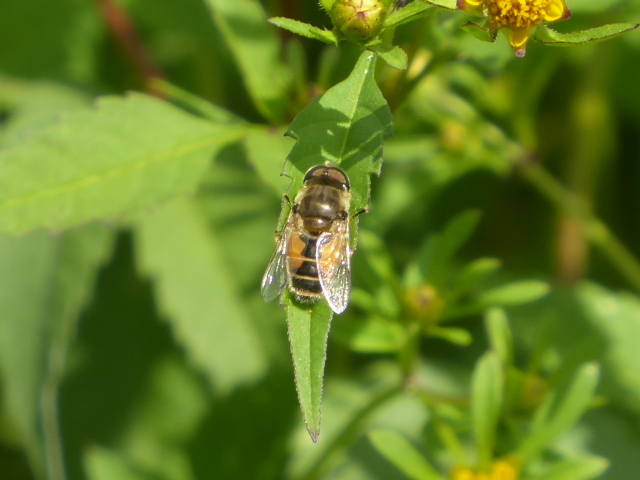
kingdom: Animalia
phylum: Arthropoda
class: Insecta
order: Diptera
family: Syrphidae
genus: Eristalis
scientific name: Eristalis arbustorum
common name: Hover fly
